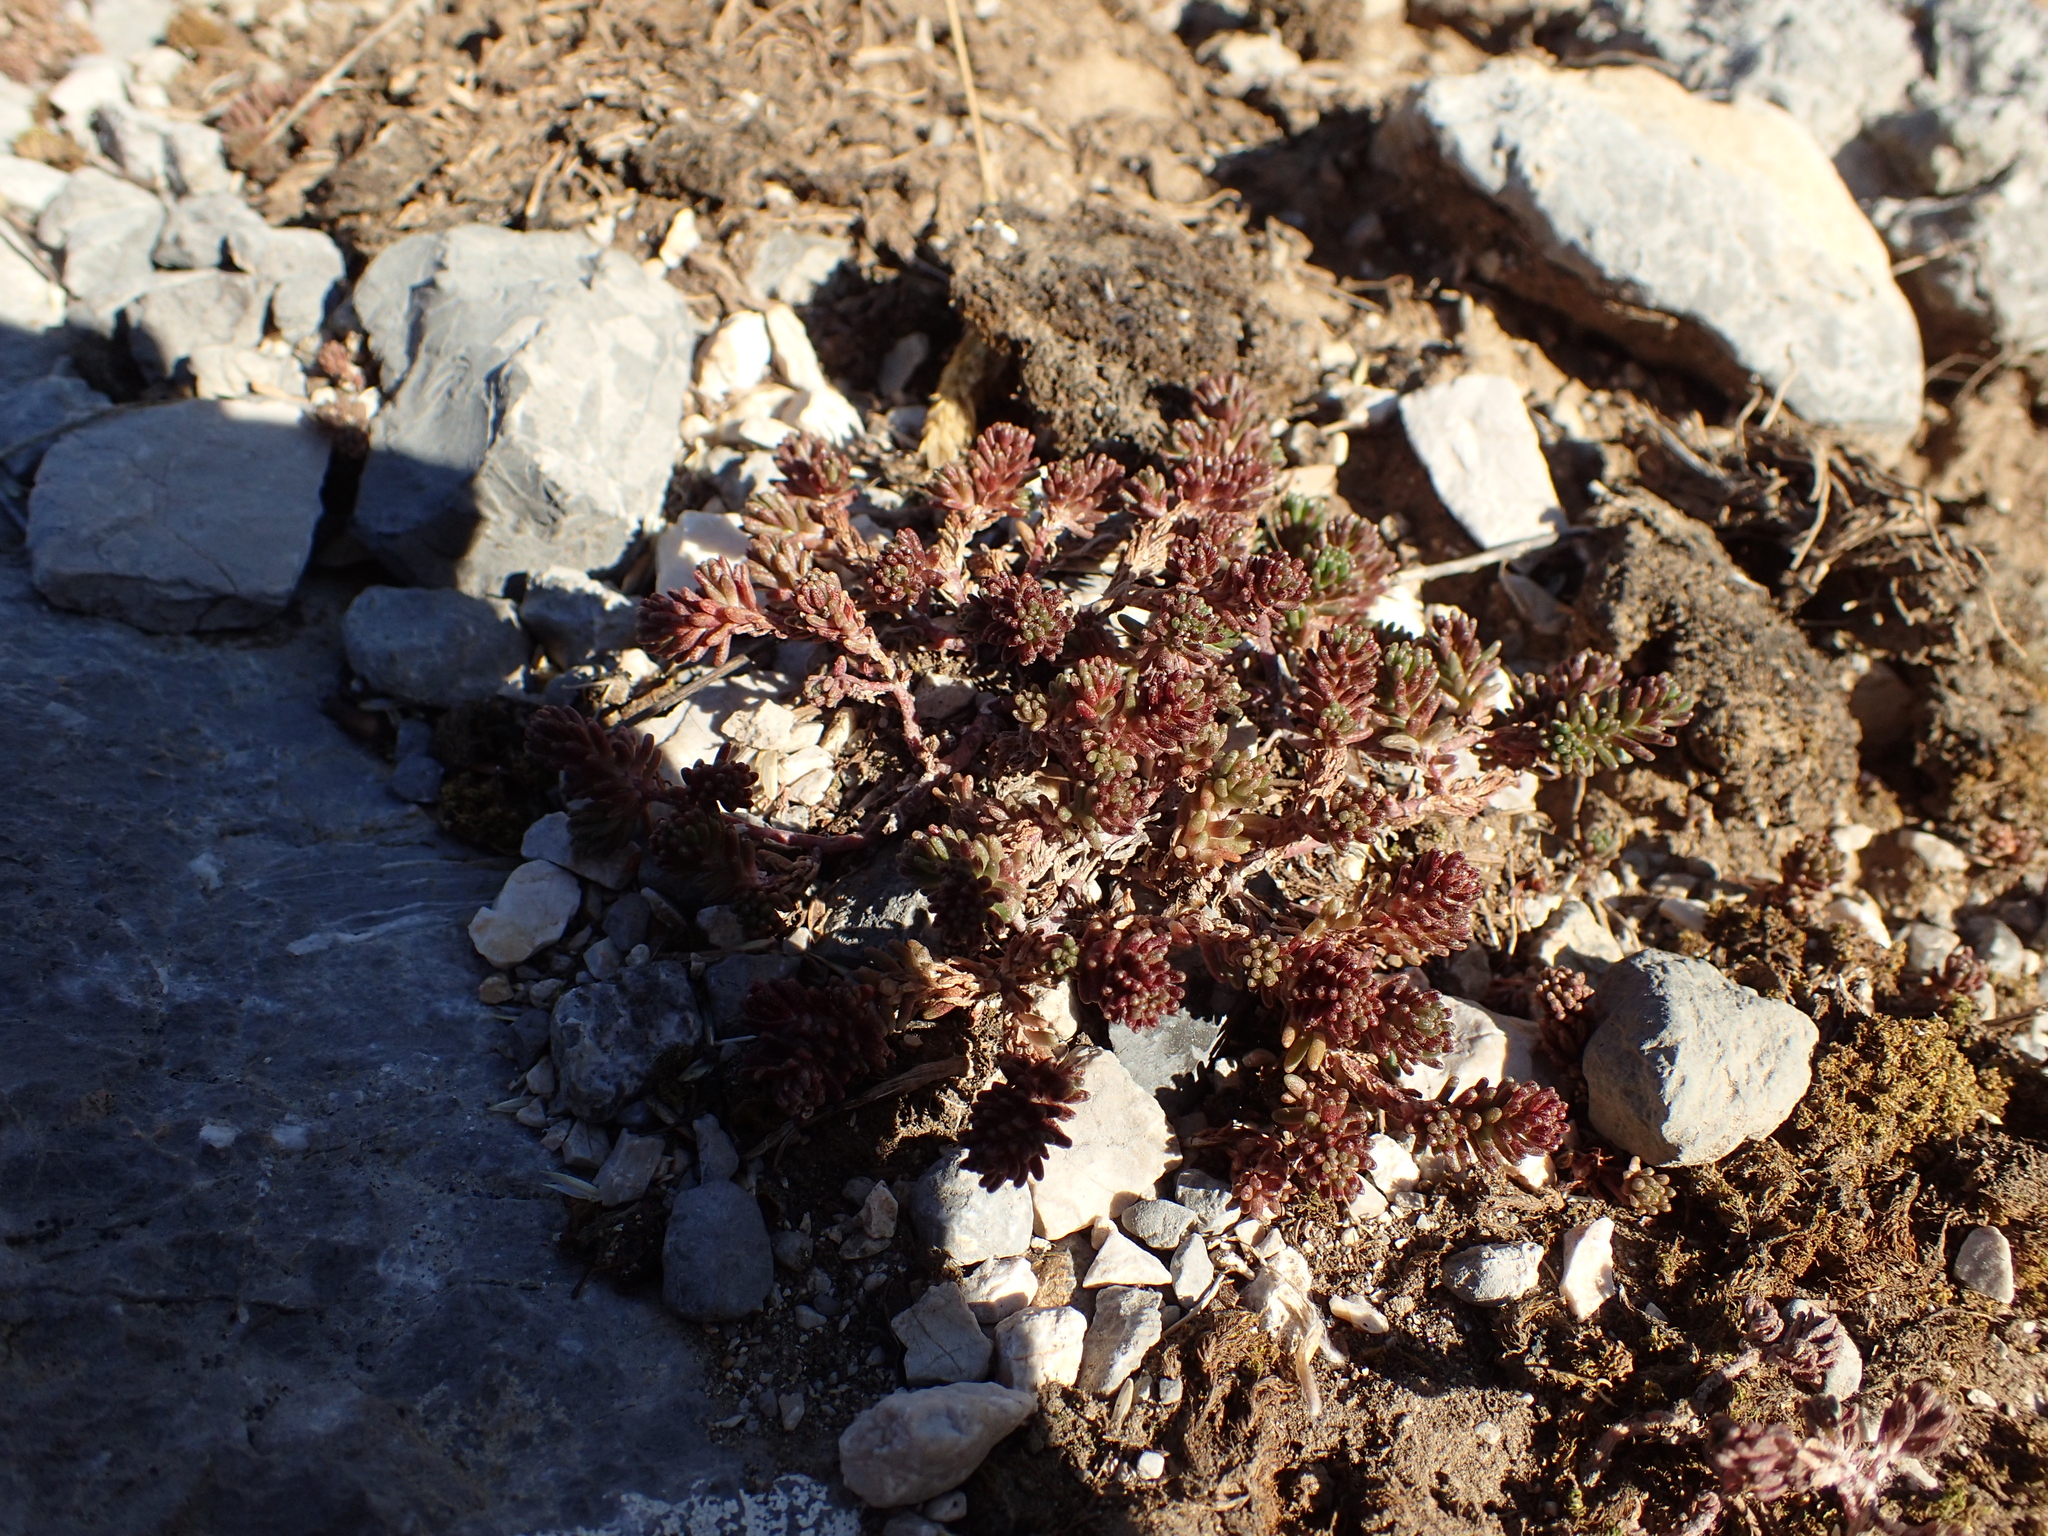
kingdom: Plantae
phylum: Tracheophyta
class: Magnoliopsida
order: Saxifragales
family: Crassulaceae
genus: Sedum
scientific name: Sedum sexangulare
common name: Tasteless stonecrop
